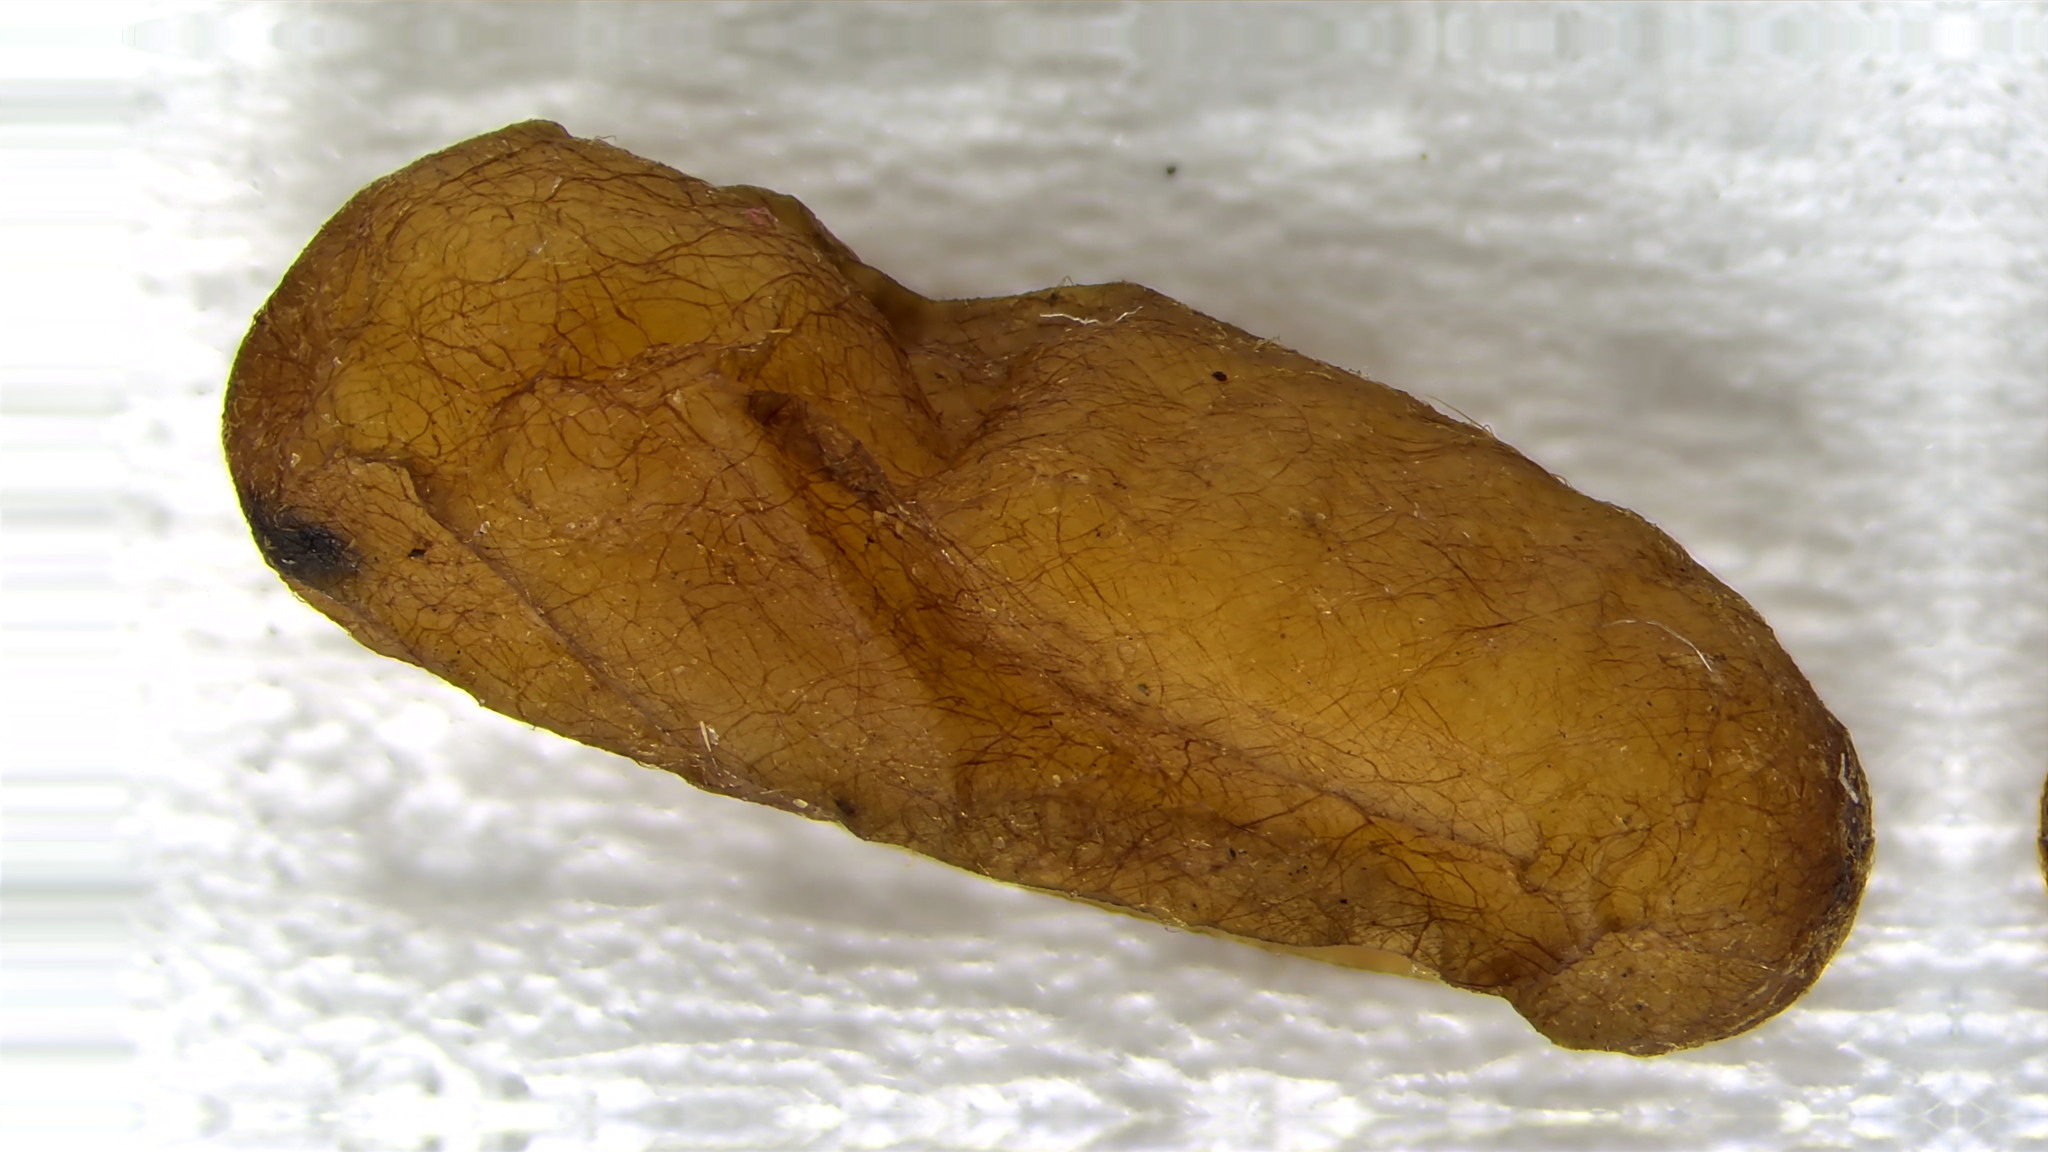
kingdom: Animalia
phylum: Arthropoda
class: Insecta
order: Hymenoptera
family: Formicidae
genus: Formica
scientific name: Formica subsericea
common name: Silky field ant
